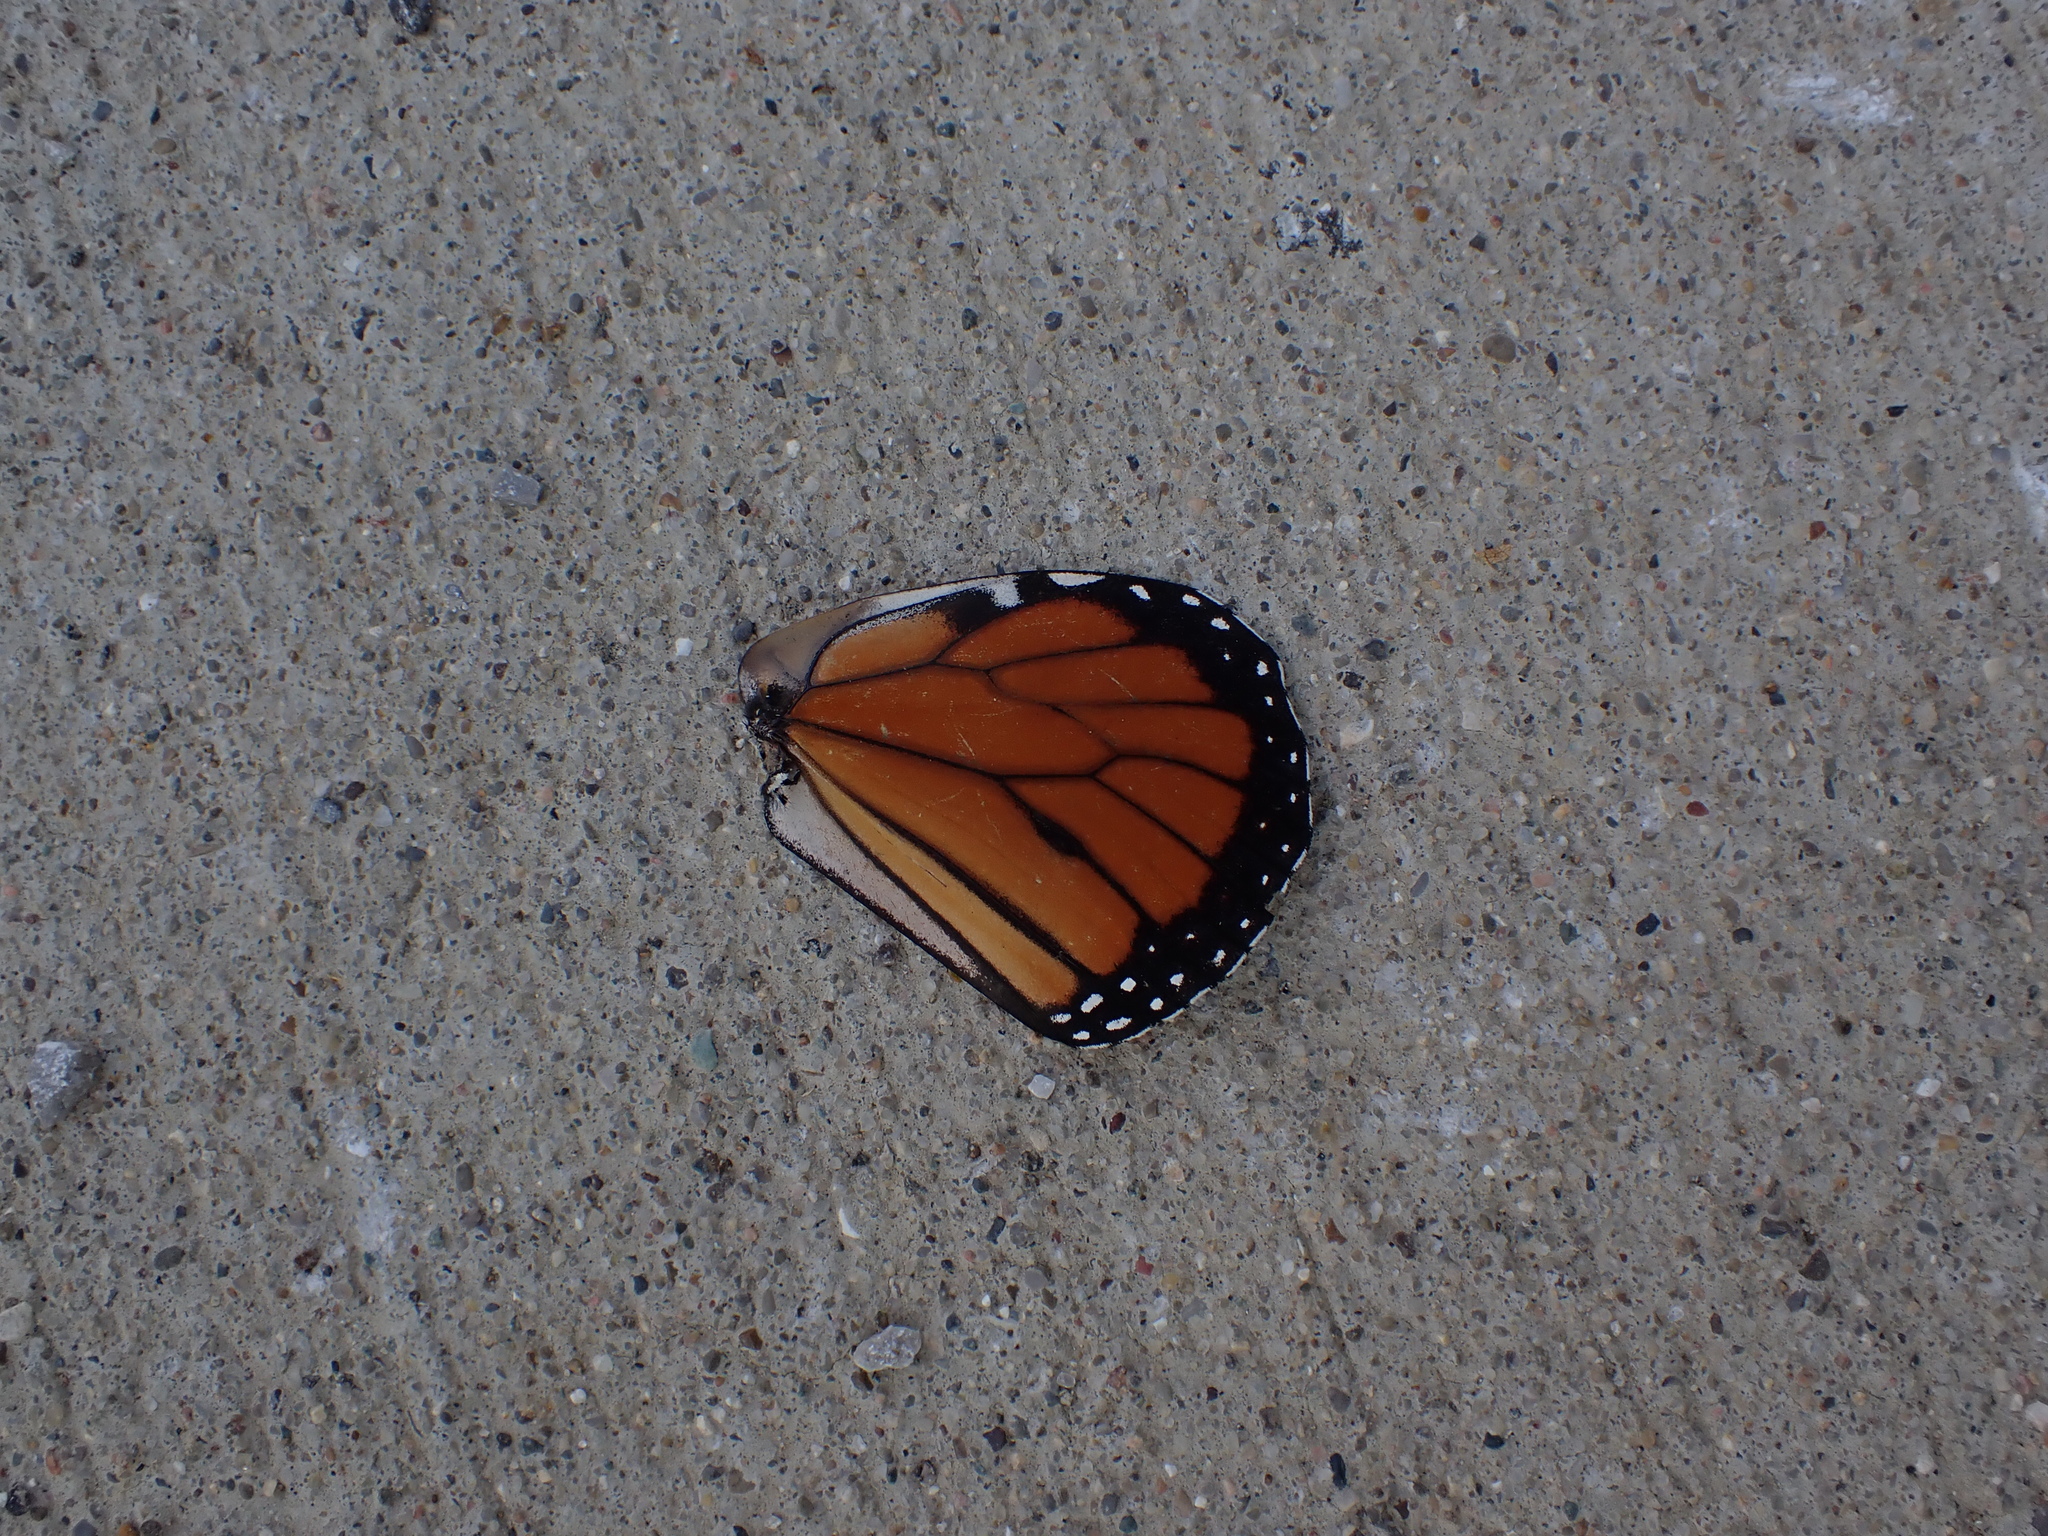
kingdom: Animalia
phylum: Arthropoda
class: Insecta
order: Lepidoptera
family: Nymphalidae
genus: Danaus
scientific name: Danaus plexippus
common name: Monarch
